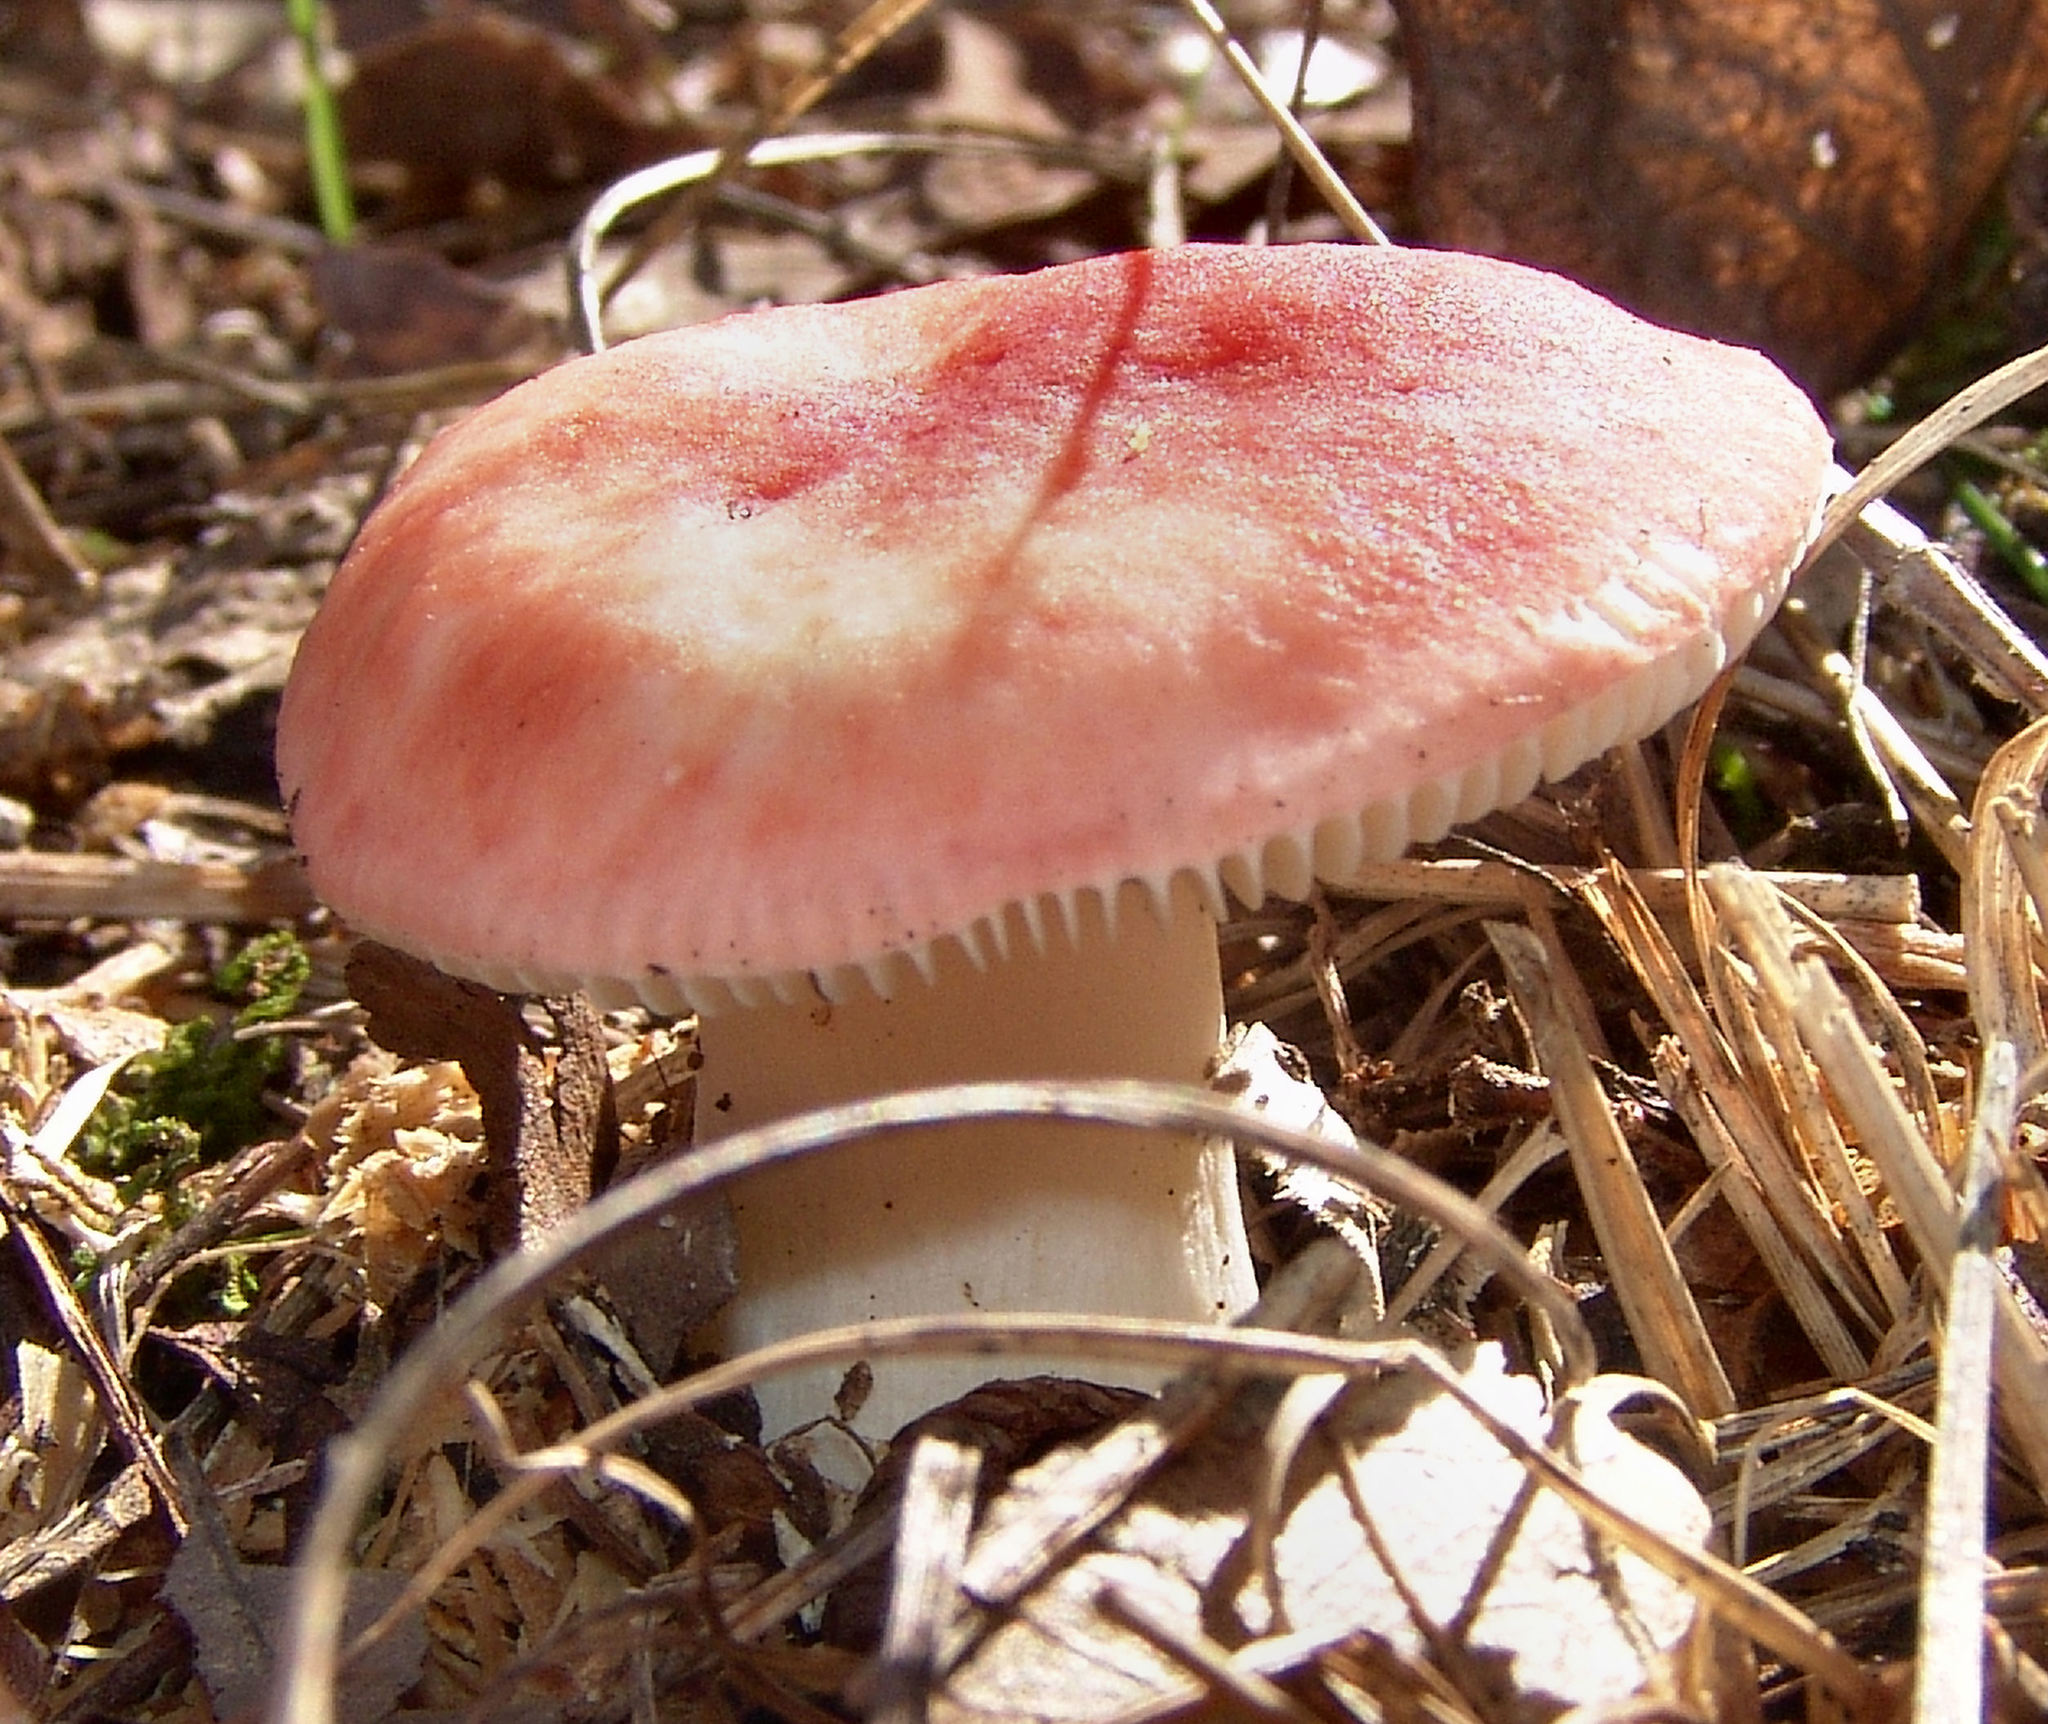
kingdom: Fungi
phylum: Basidiomycota
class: Agaricomycetes
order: Russulales
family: Russulaceae
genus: Russula
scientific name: Russula
